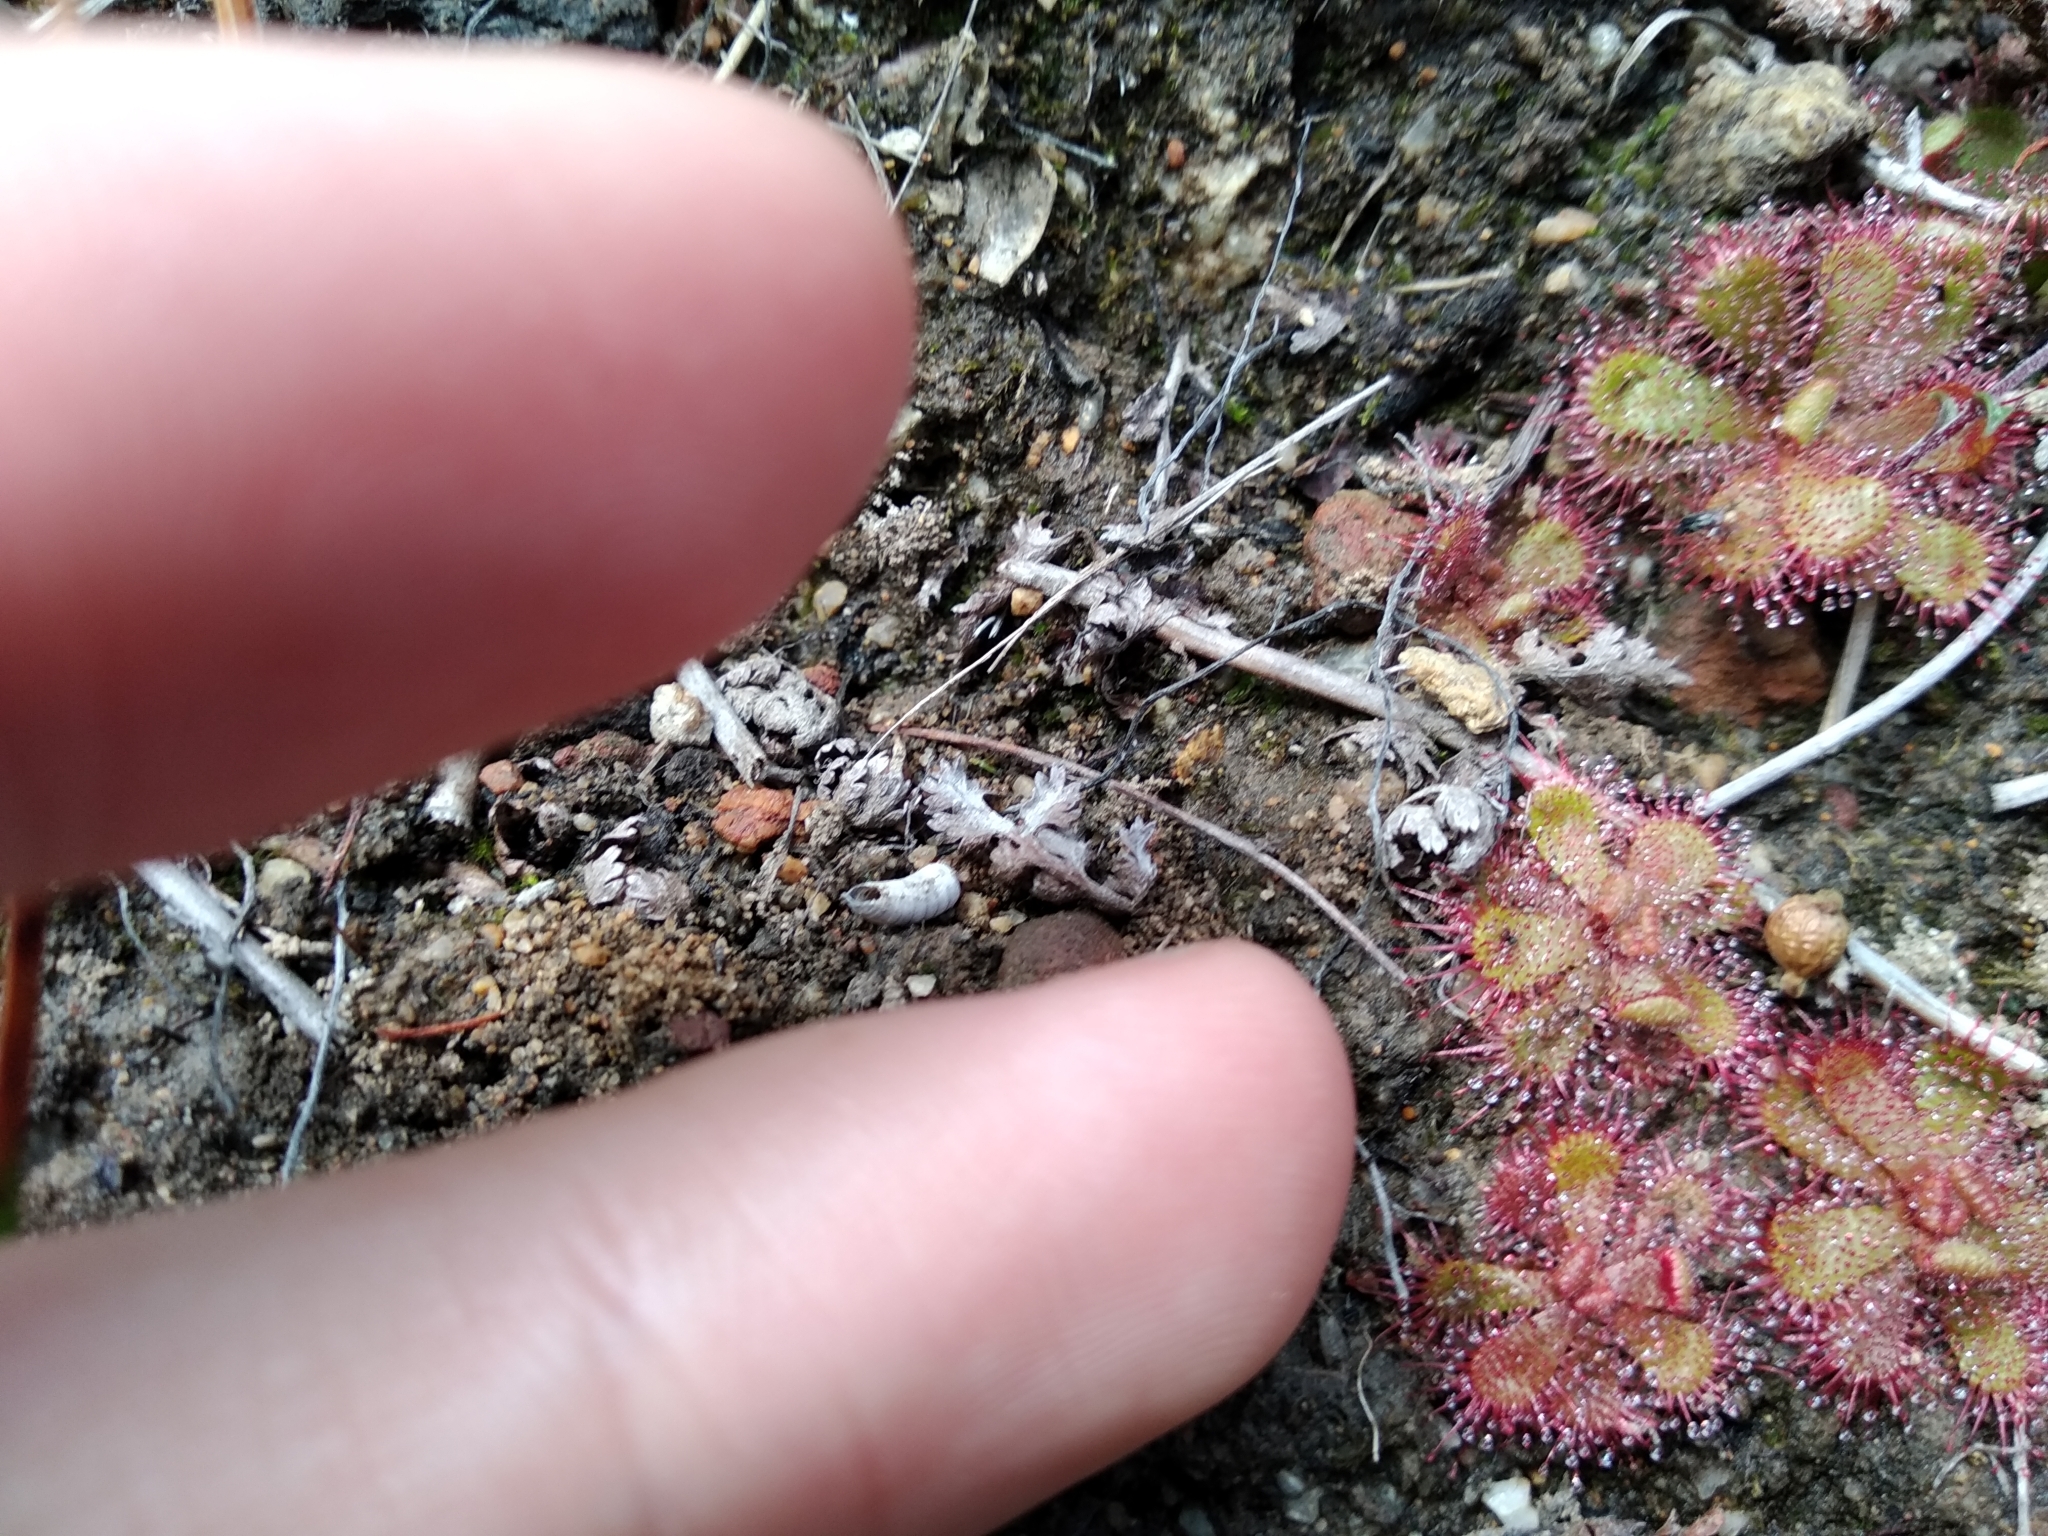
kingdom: Plantae
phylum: Tracheophyta
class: Magnoliopsida
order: Caryophyllales
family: Droseraceae
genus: Drosera
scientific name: Drosera trinervia
